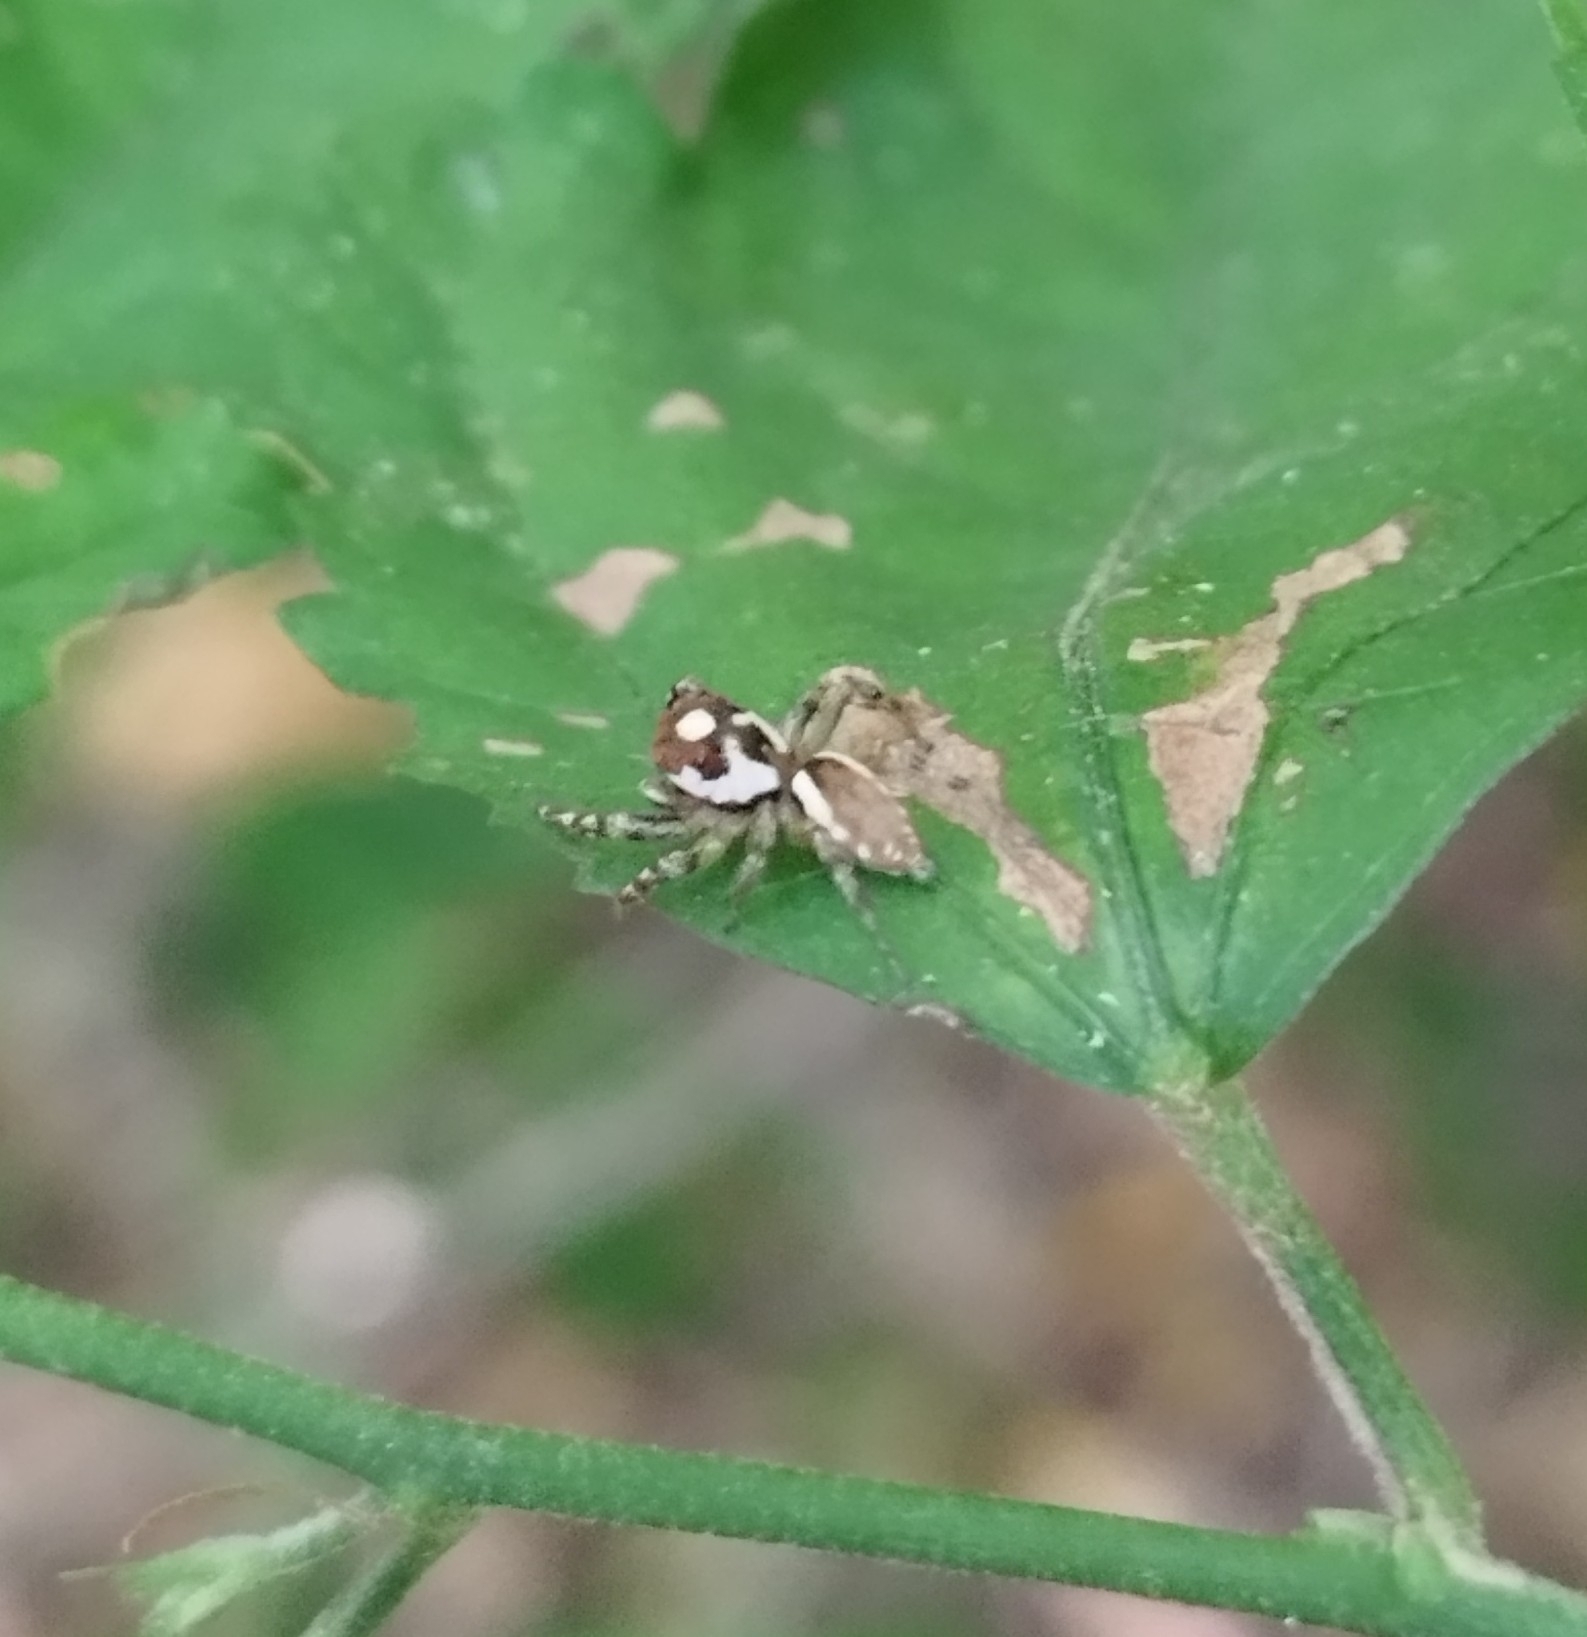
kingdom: Animalia
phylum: Arthropoda
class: Arachnida
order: Araneae
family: Salticidae
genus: Chira
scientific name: Chira gounellei
